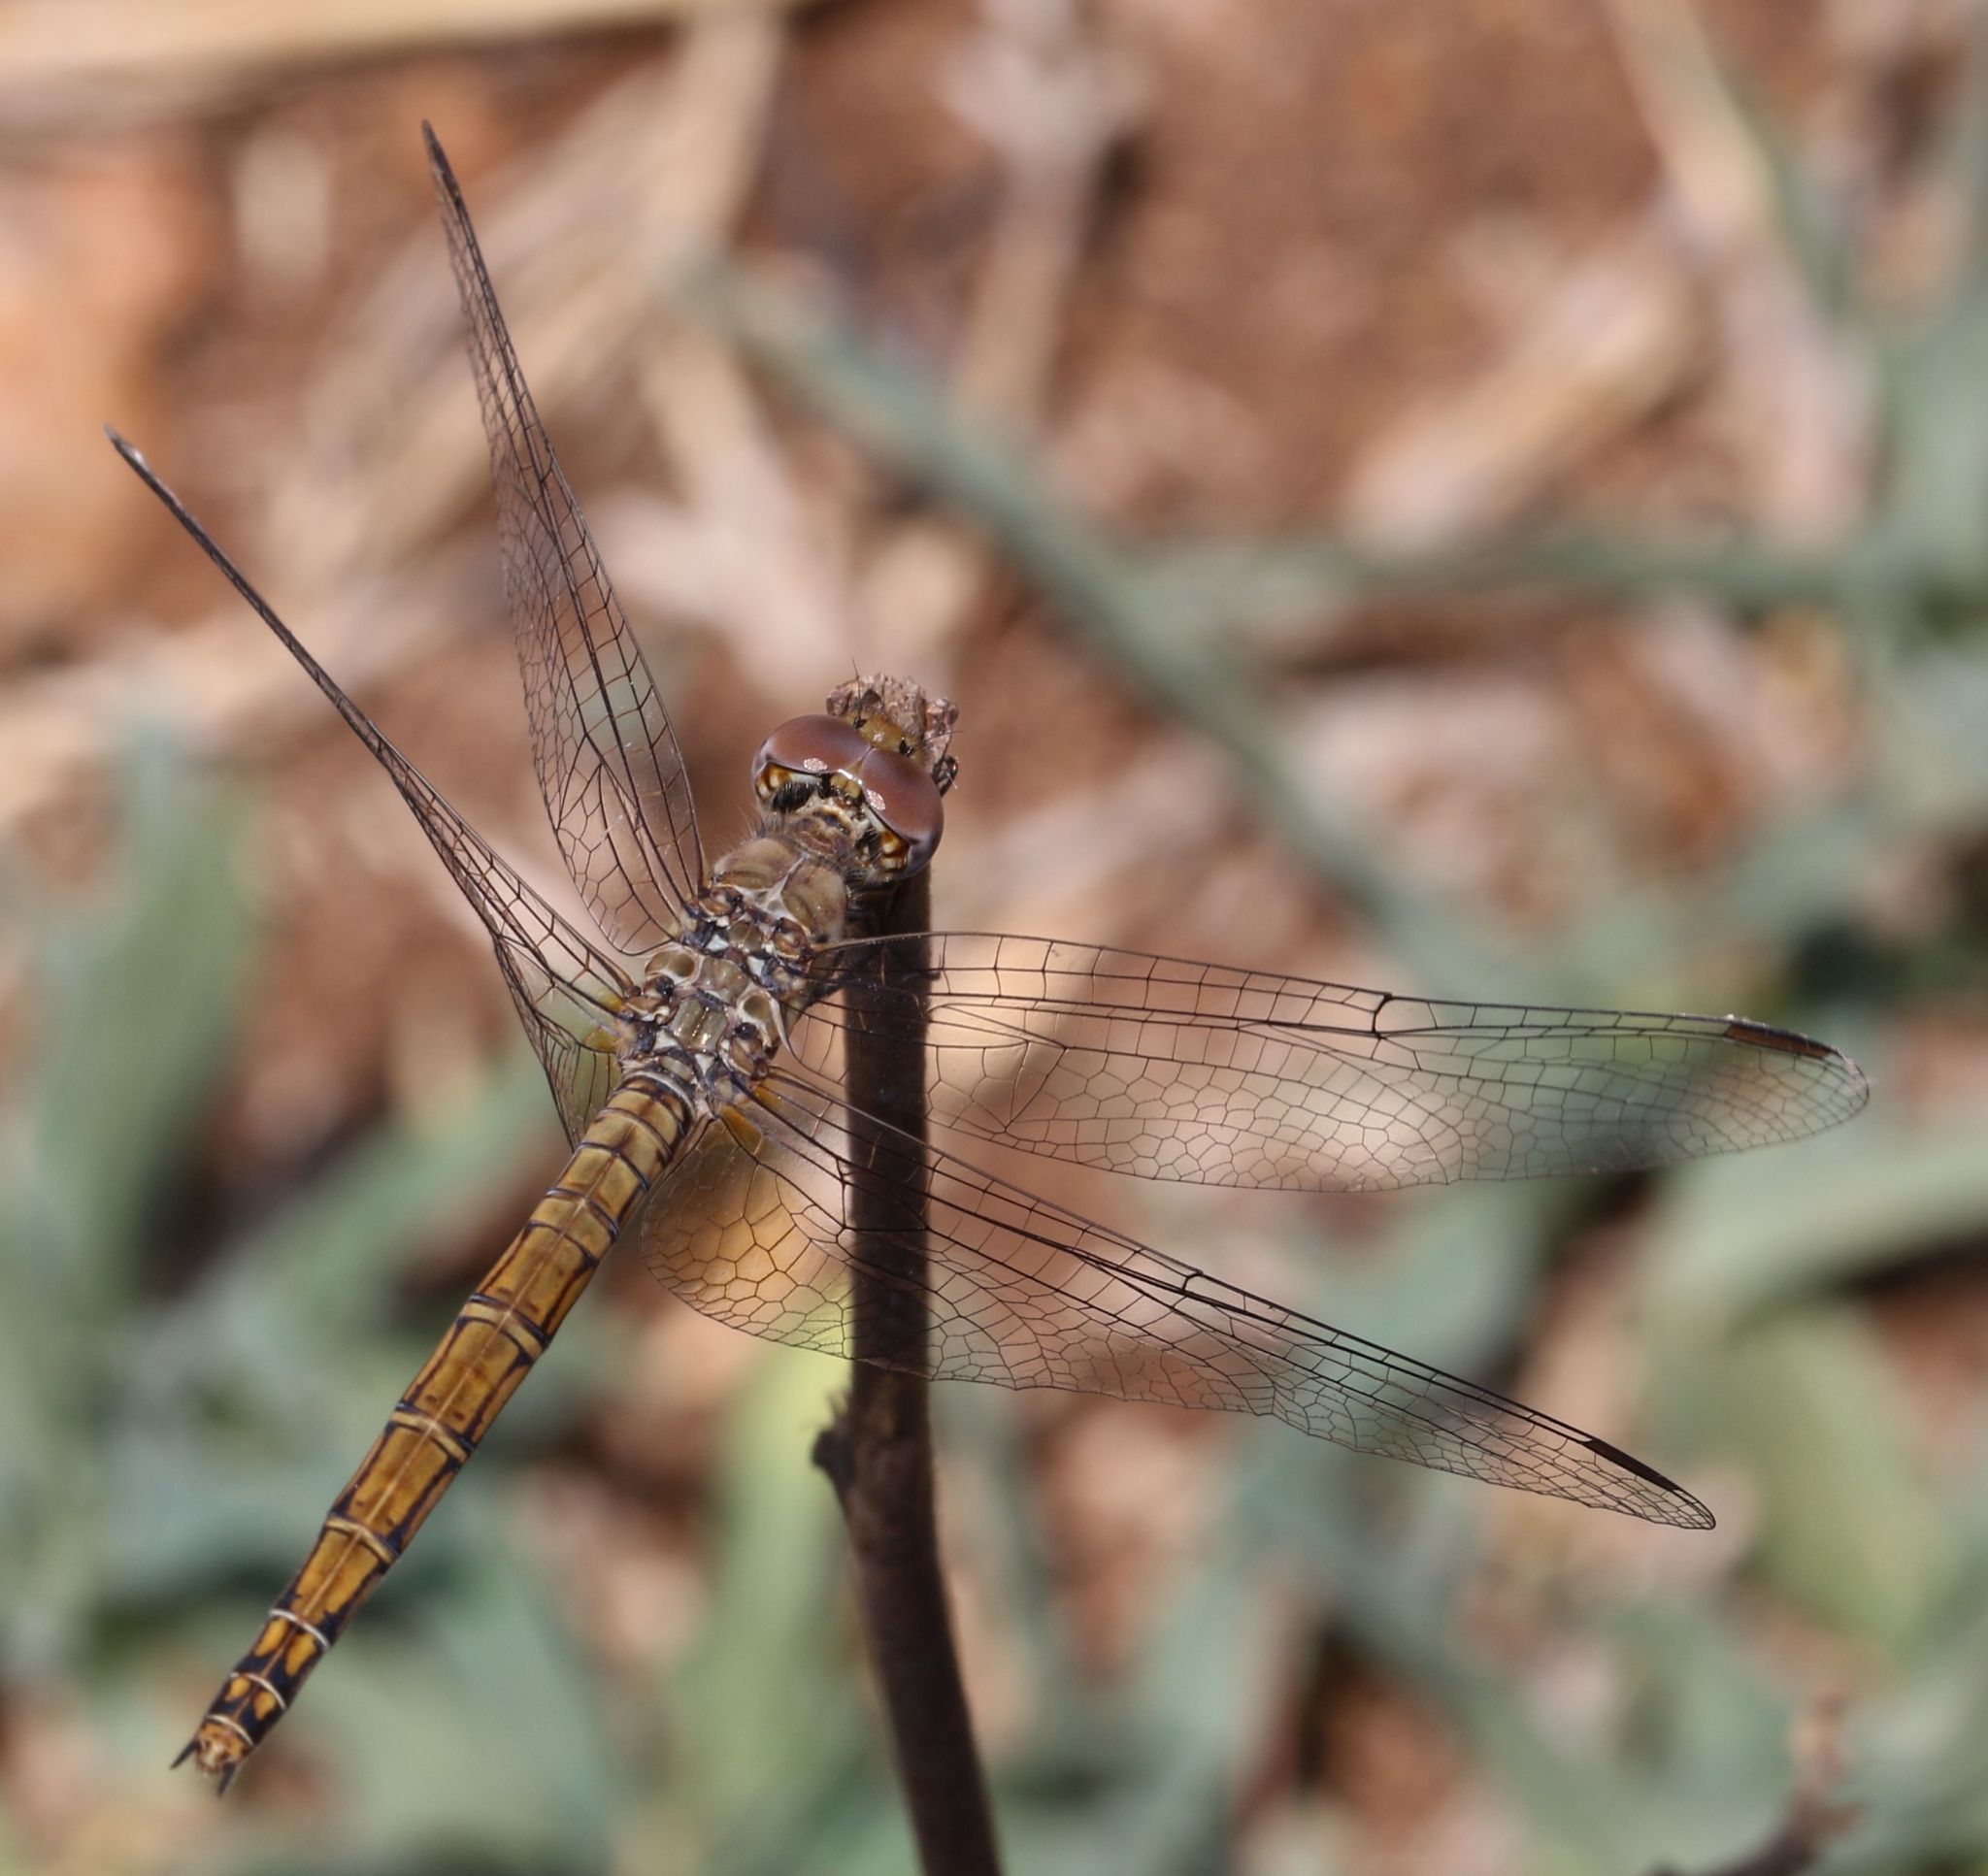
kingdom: Animalia
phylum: Arthropoda
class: Insecta
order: Odonata
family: Libellulidae
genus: Trithemis
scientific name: Trithemis werneri
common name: Elegant dropwing
